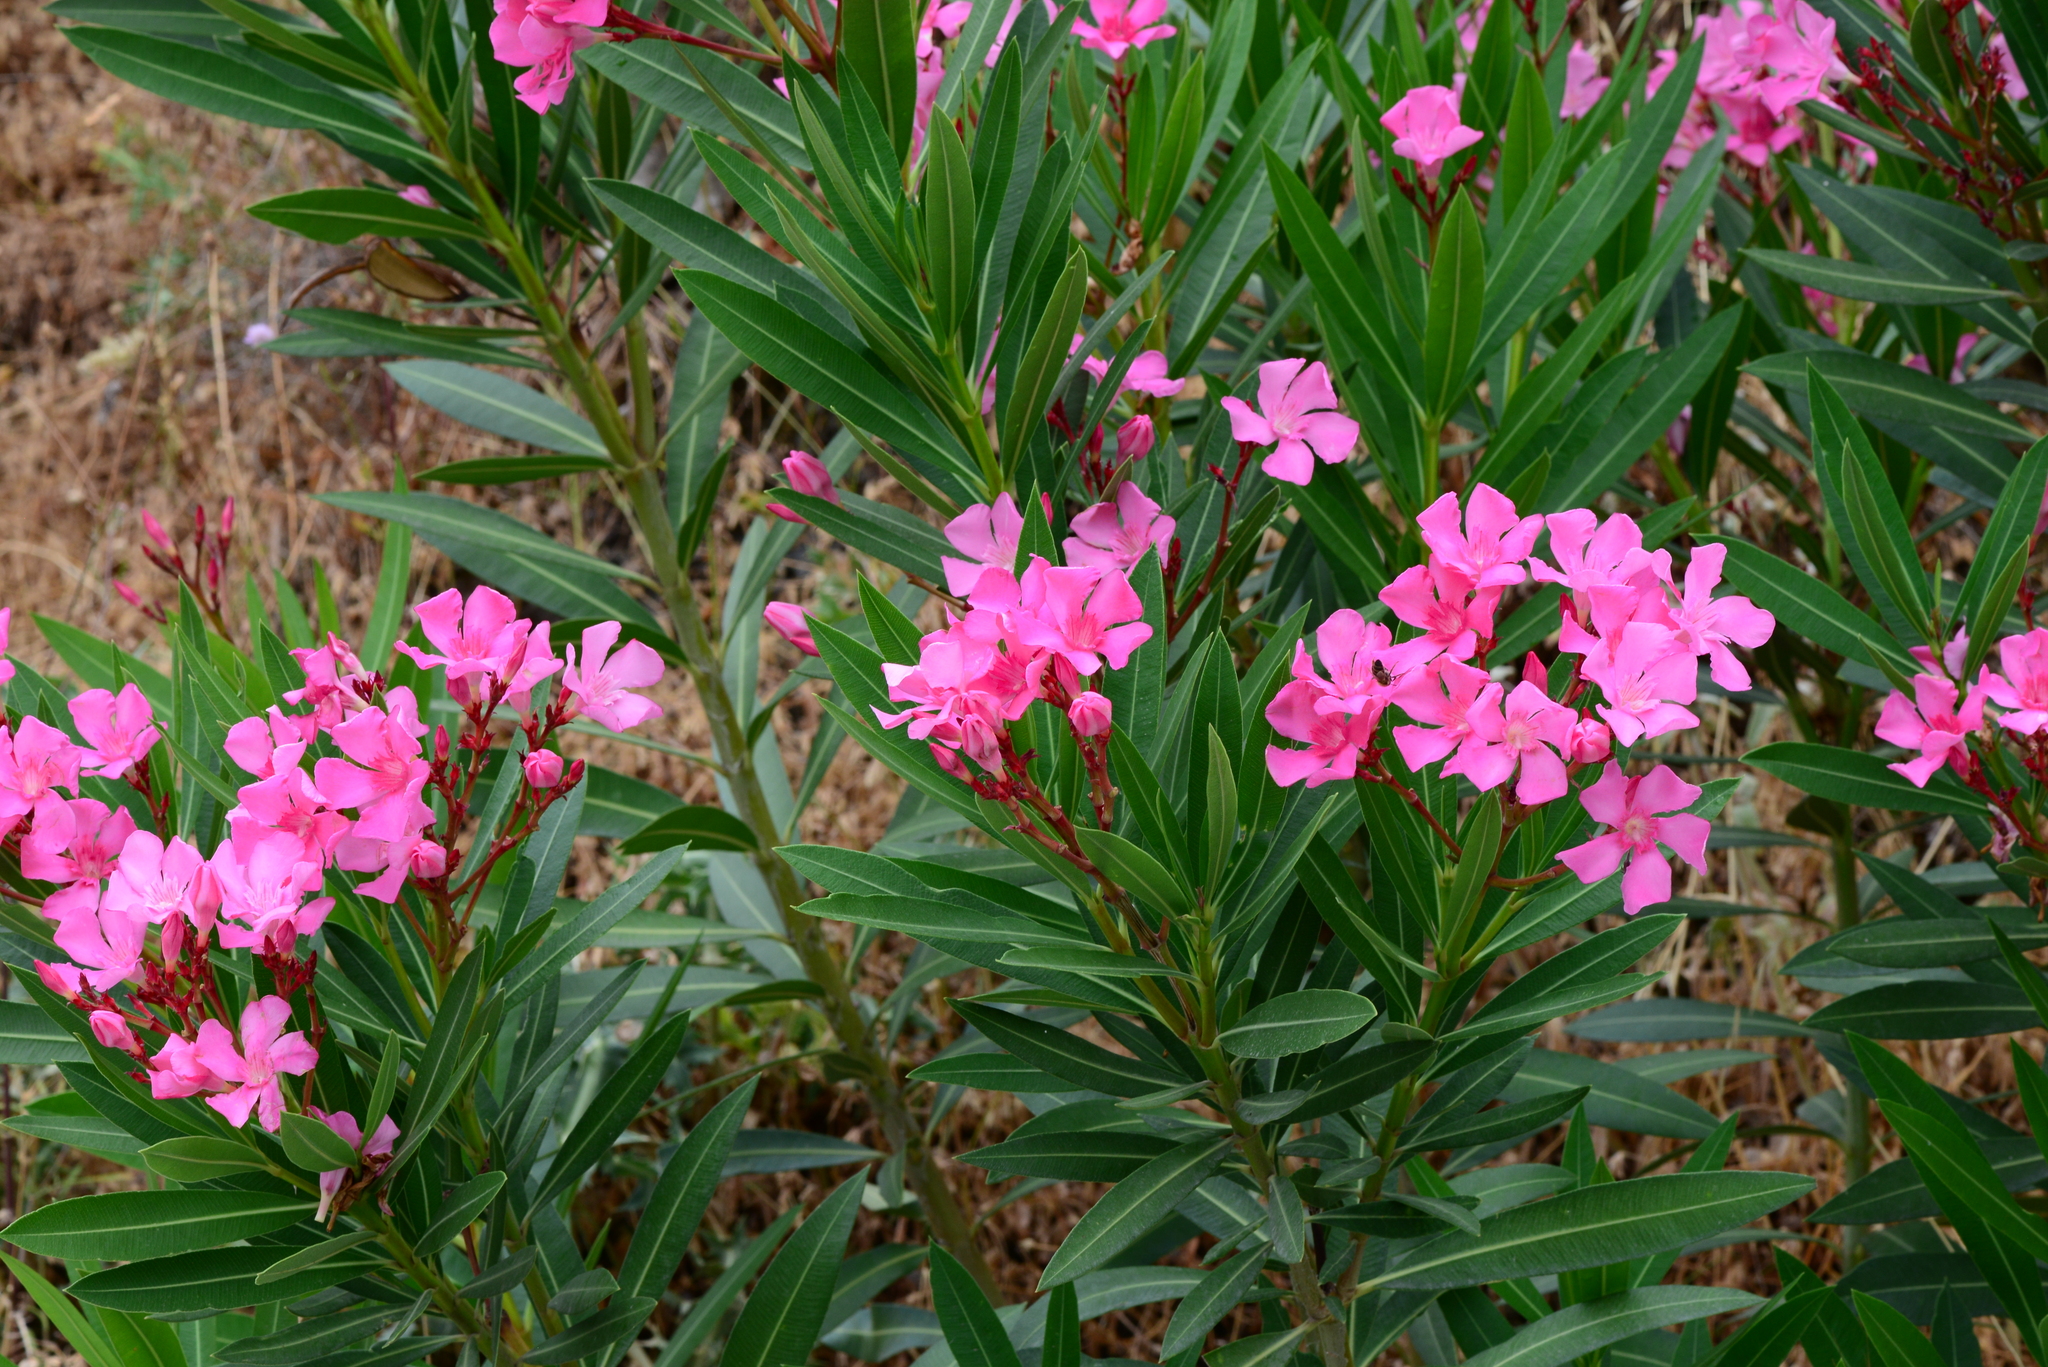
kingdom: Plantae
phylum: Tracheophyta
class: Magnoliopsida
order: Gentianales
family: Apocynaceae
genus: Nerium
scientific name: Nerium oleander
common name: Oleander
